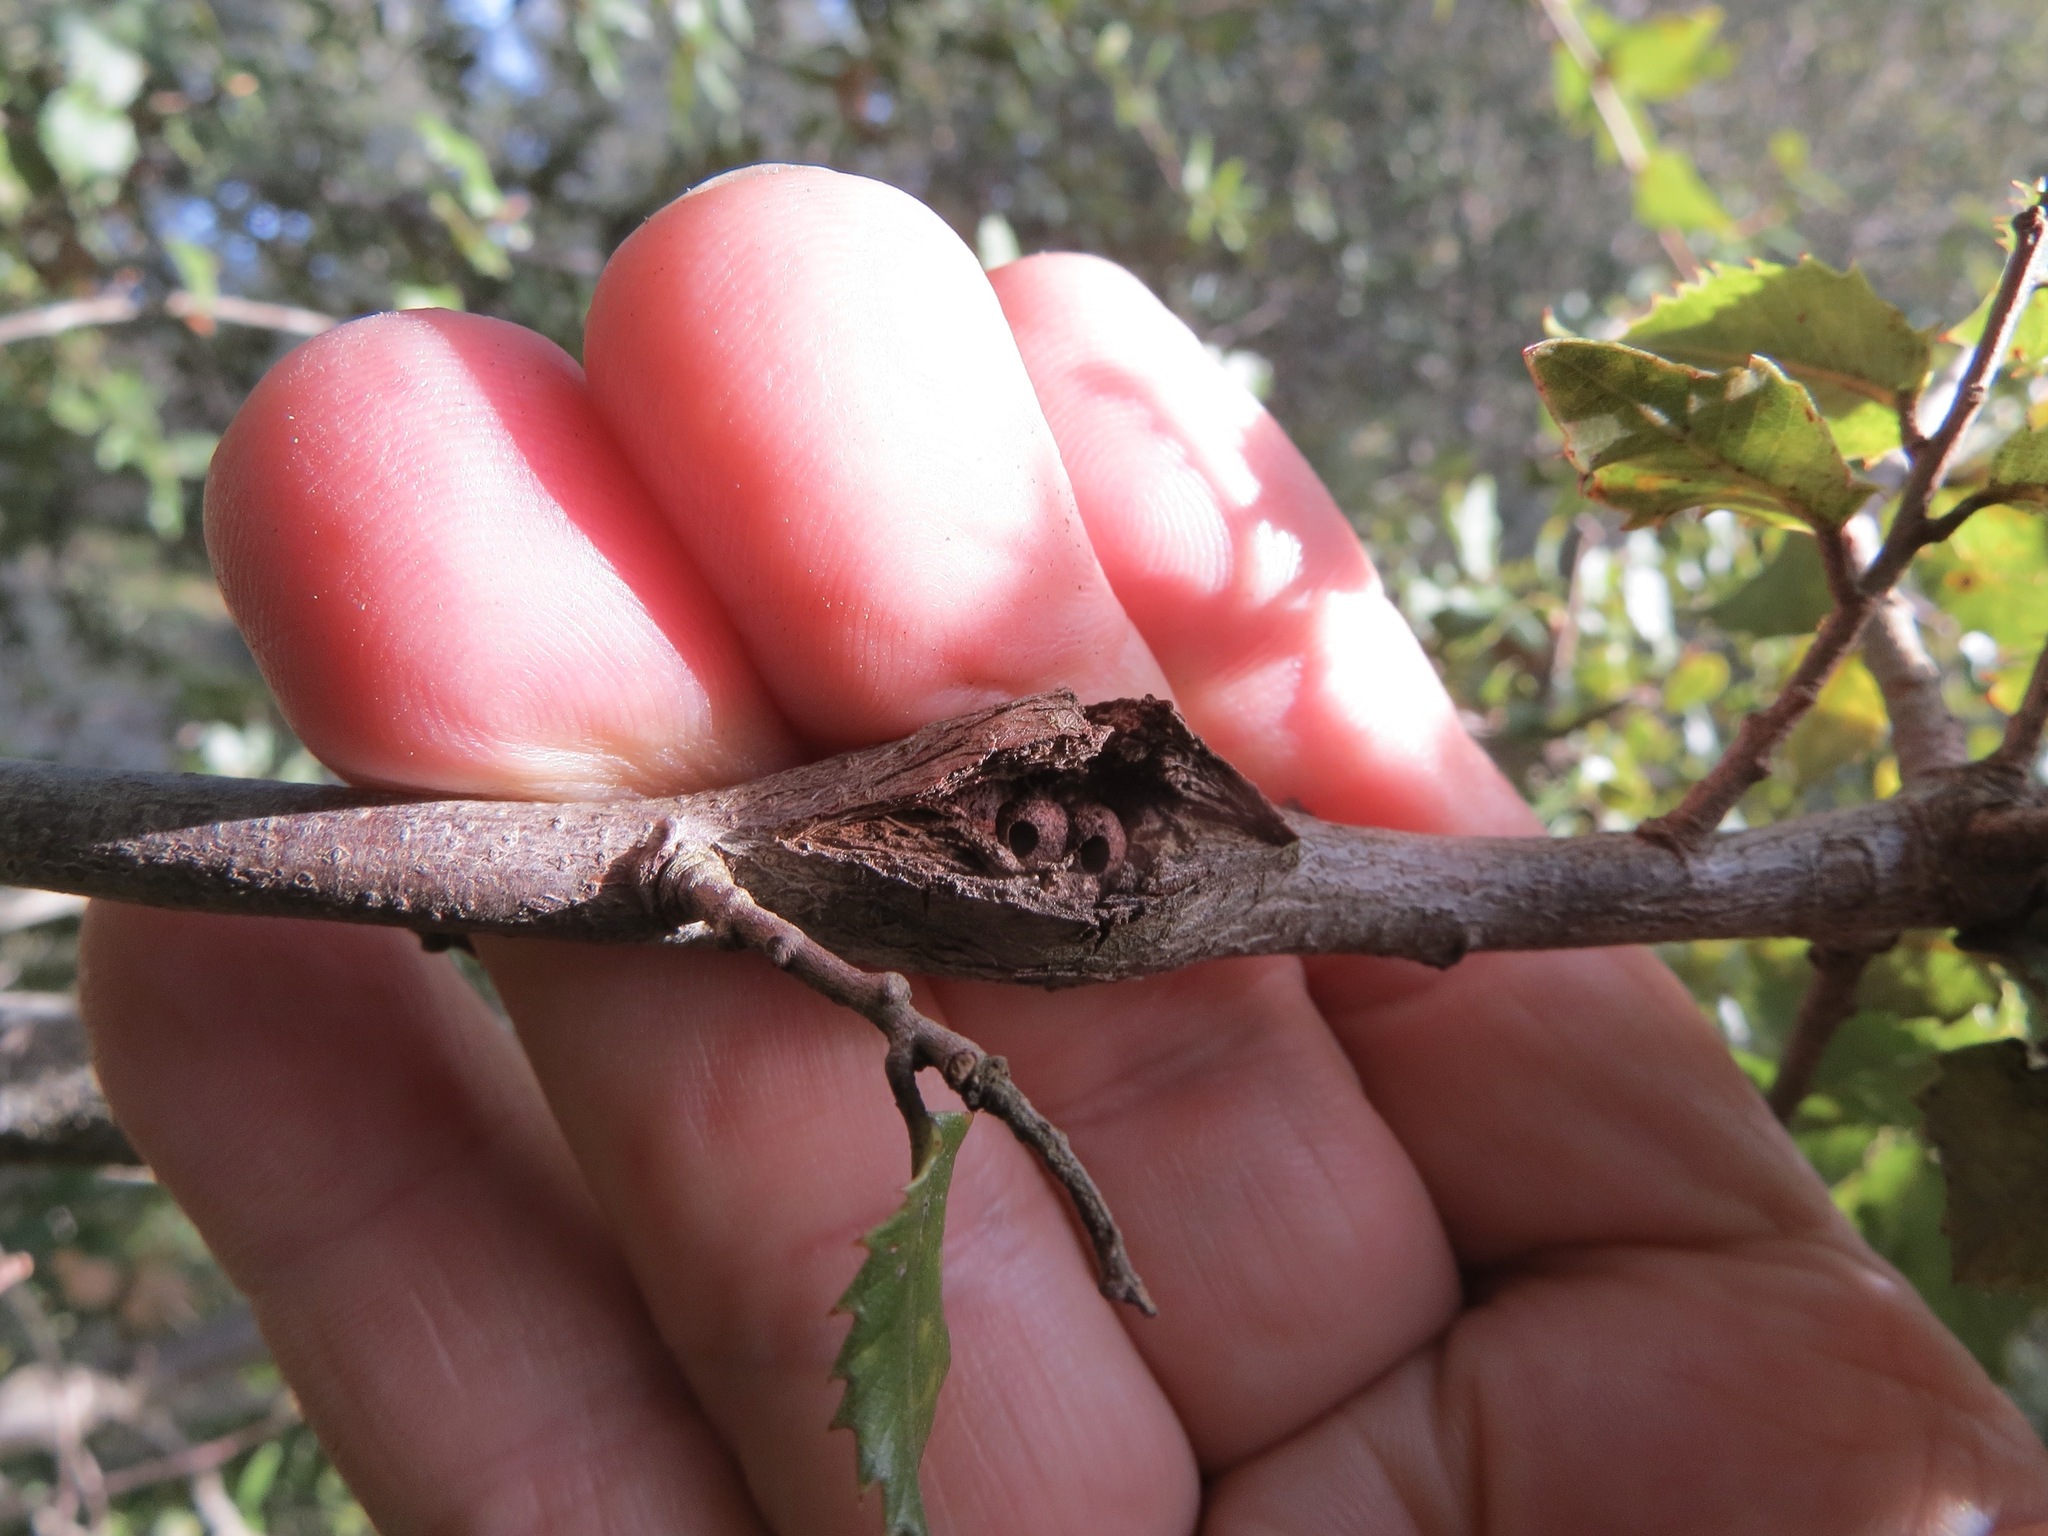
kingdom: Animalia
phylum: Arthropoda
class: Insecta
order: Hymenoptera
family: Cynipidae
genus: Dryocosmus
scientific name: Dryocosmus
